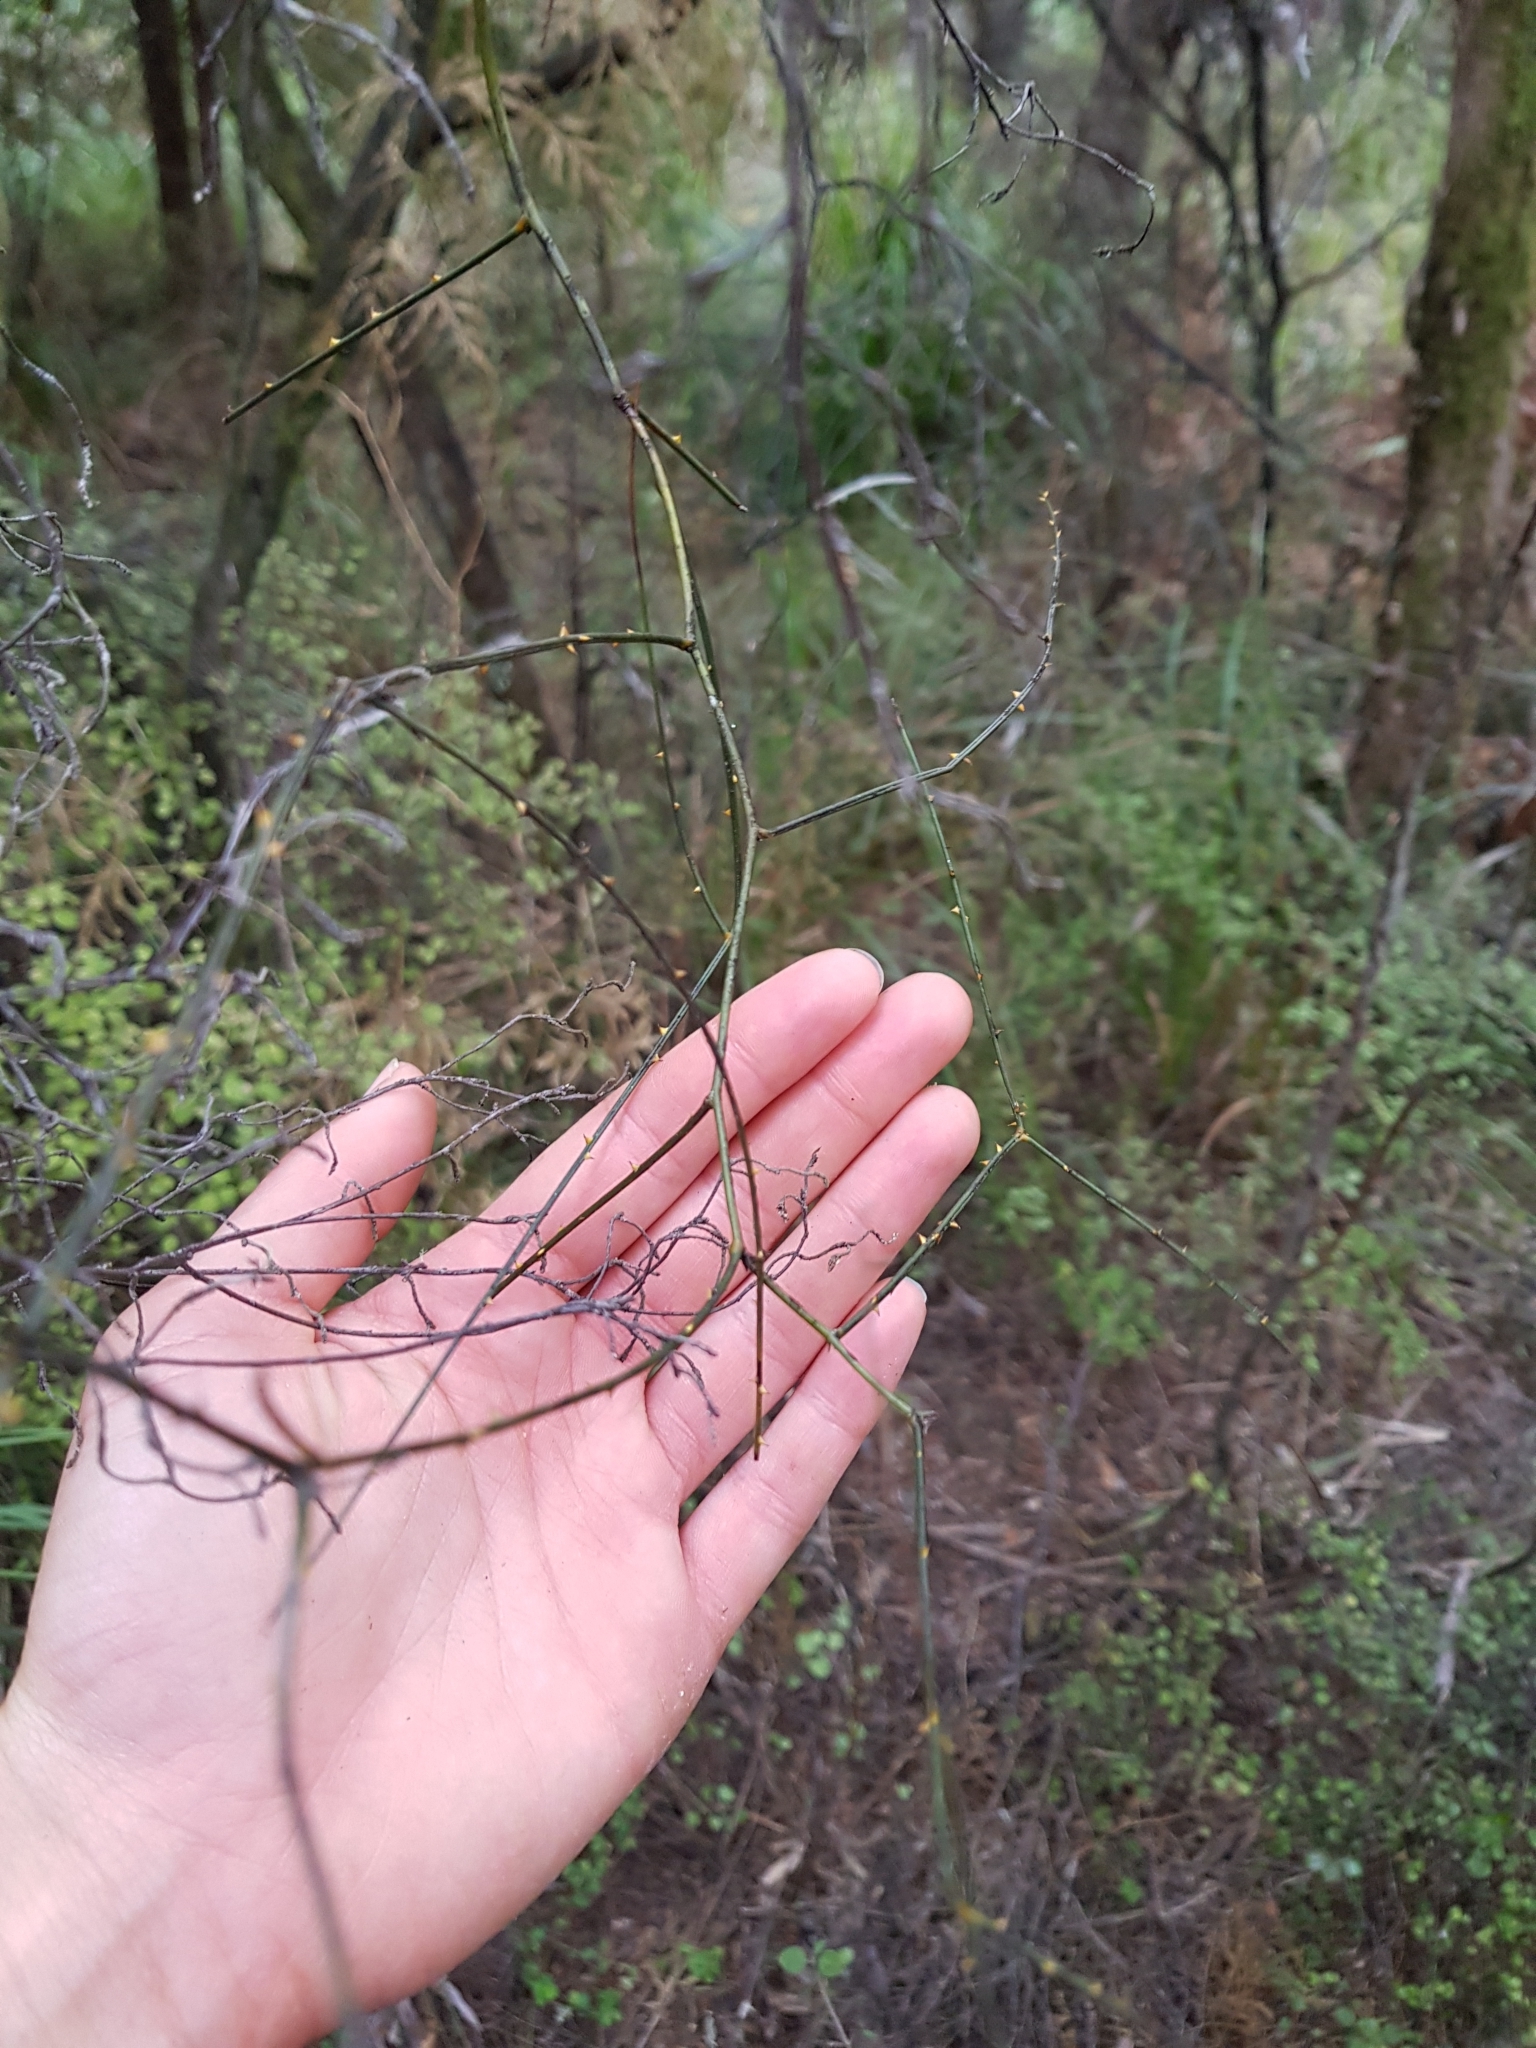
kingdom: Plantae
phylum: Tracheophyta
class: Magnoliopsida
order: Rosales
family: Rosaceae
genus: Rubus
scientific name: Rubus squarrosus
